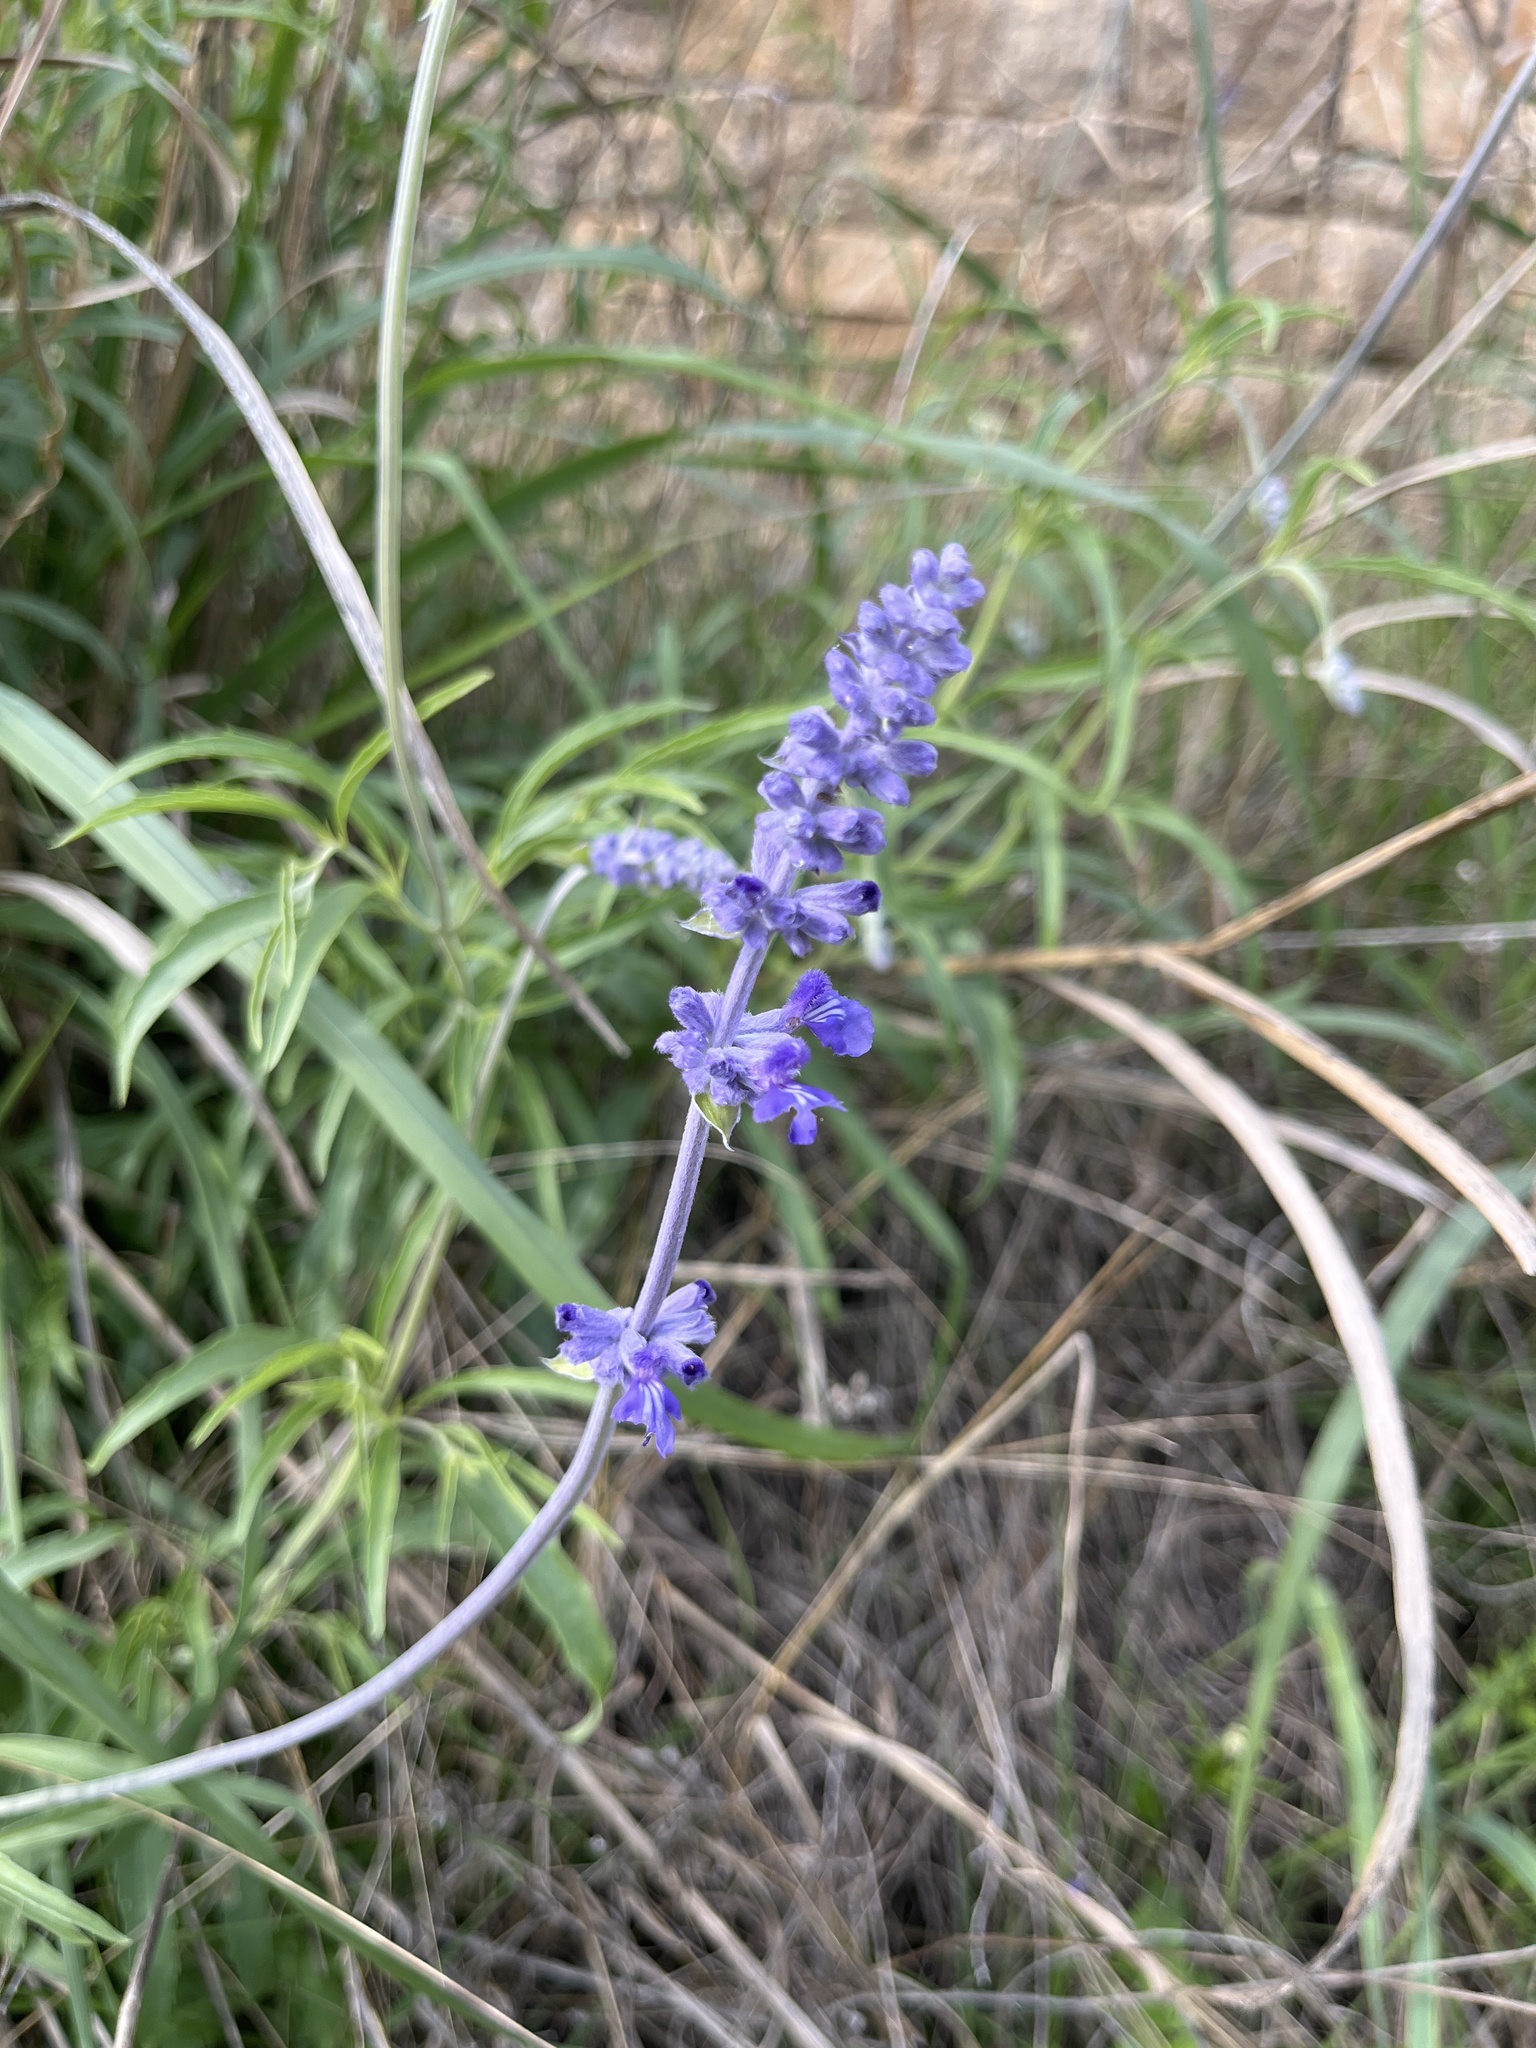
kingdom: Plantae
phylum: Tracheophyta
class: Magnoliopsida
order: Lamiales
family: Lamiaceae
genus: Salvia
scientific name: Salvia farinacea
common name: Mealy sage
